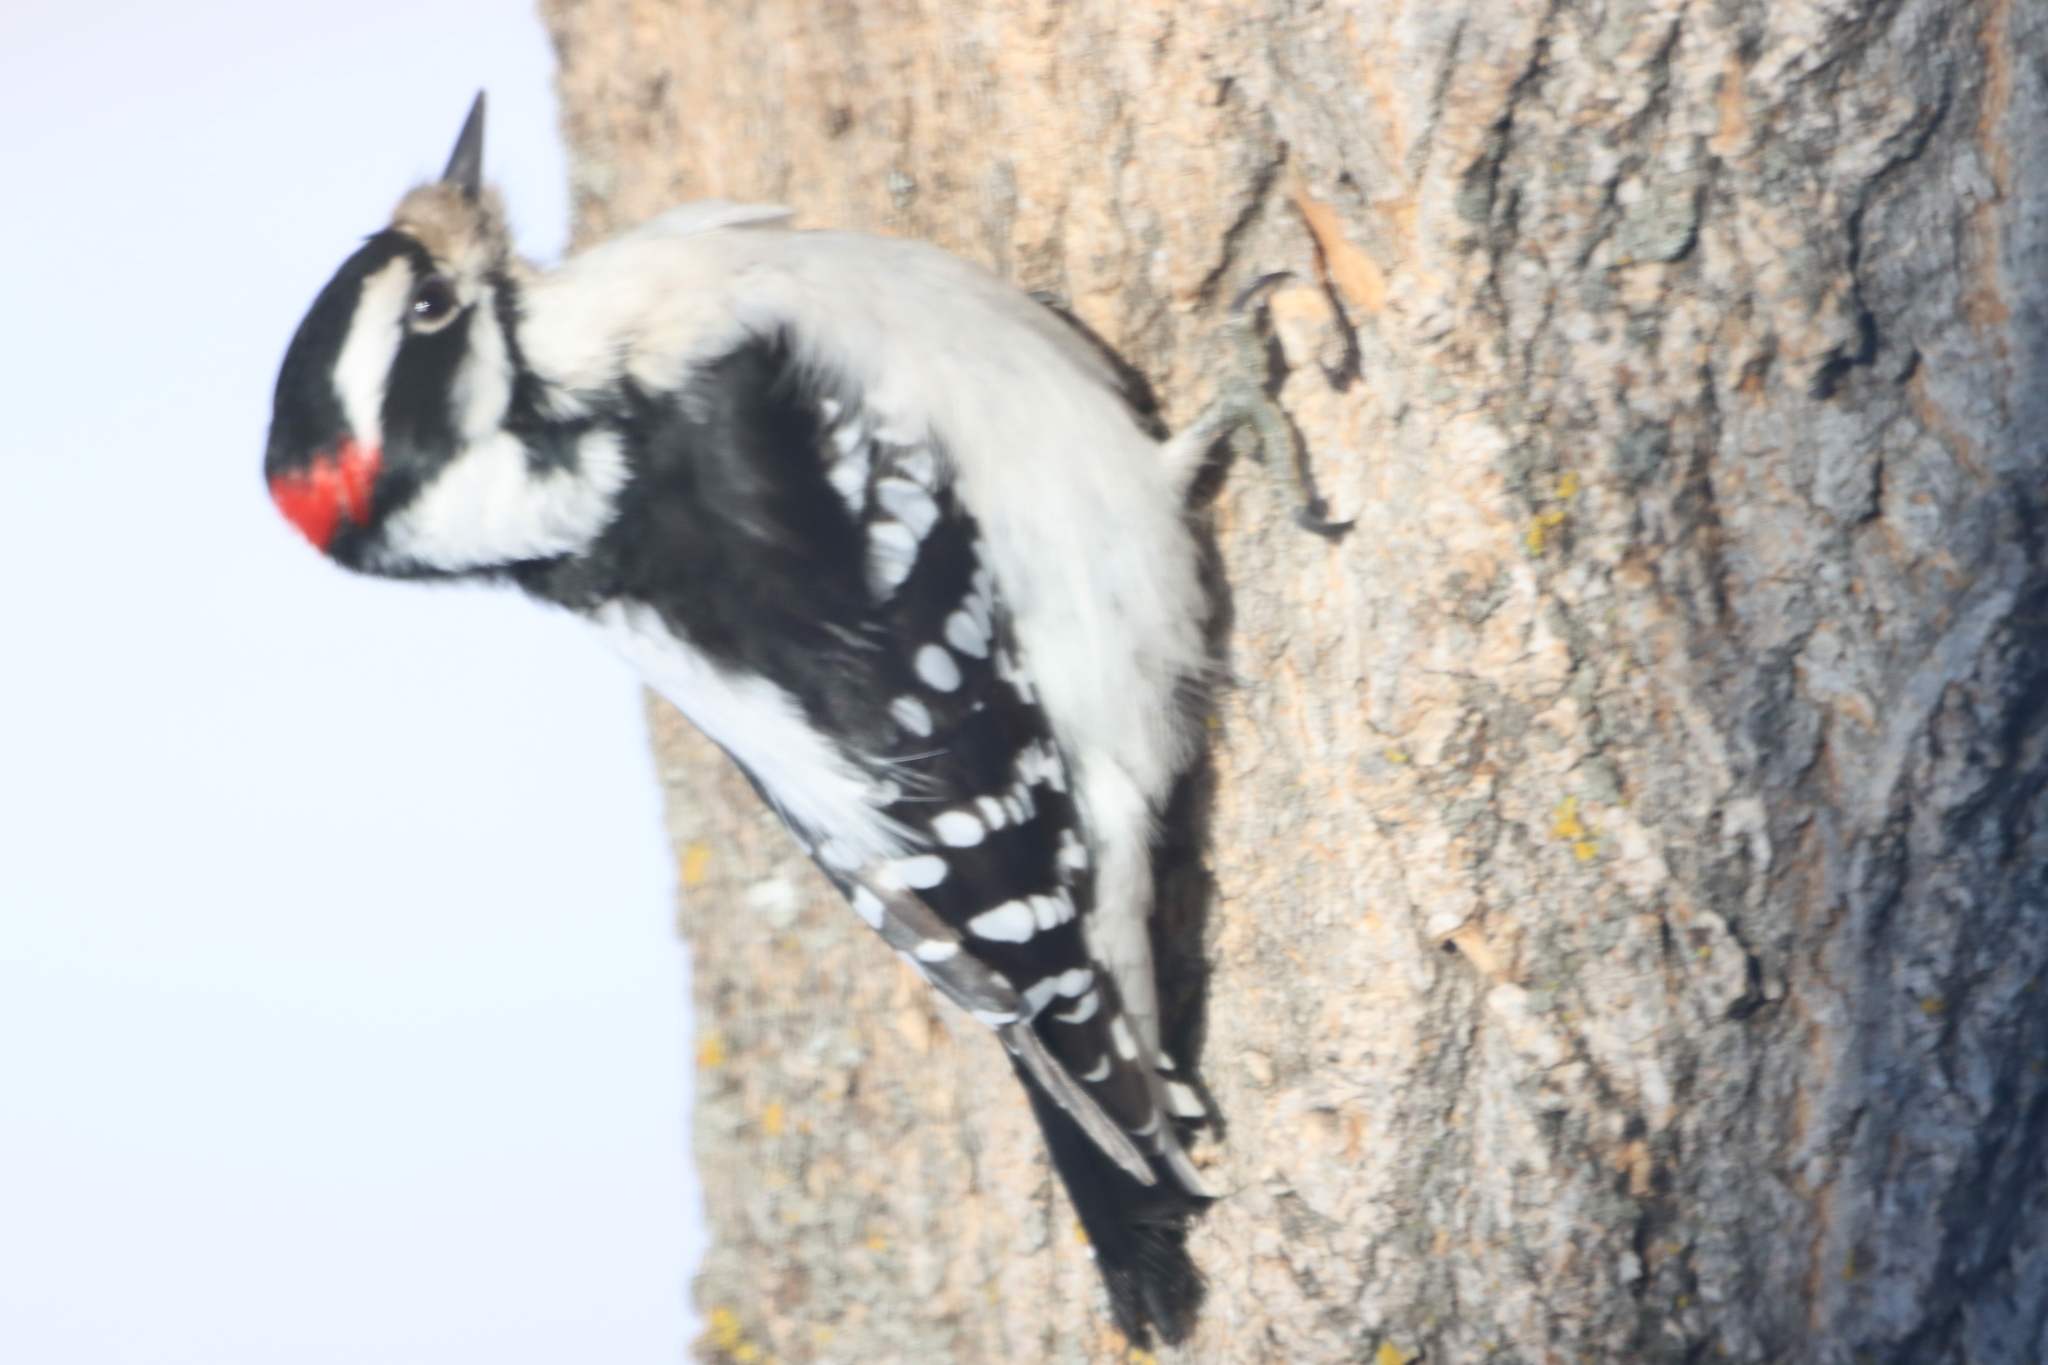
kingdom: Animalia
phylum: Chordata
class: Aves
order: Piciformes
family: Picidae
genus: Dryobates
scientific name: Dryobates pubescens
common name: Downy woodpecker
